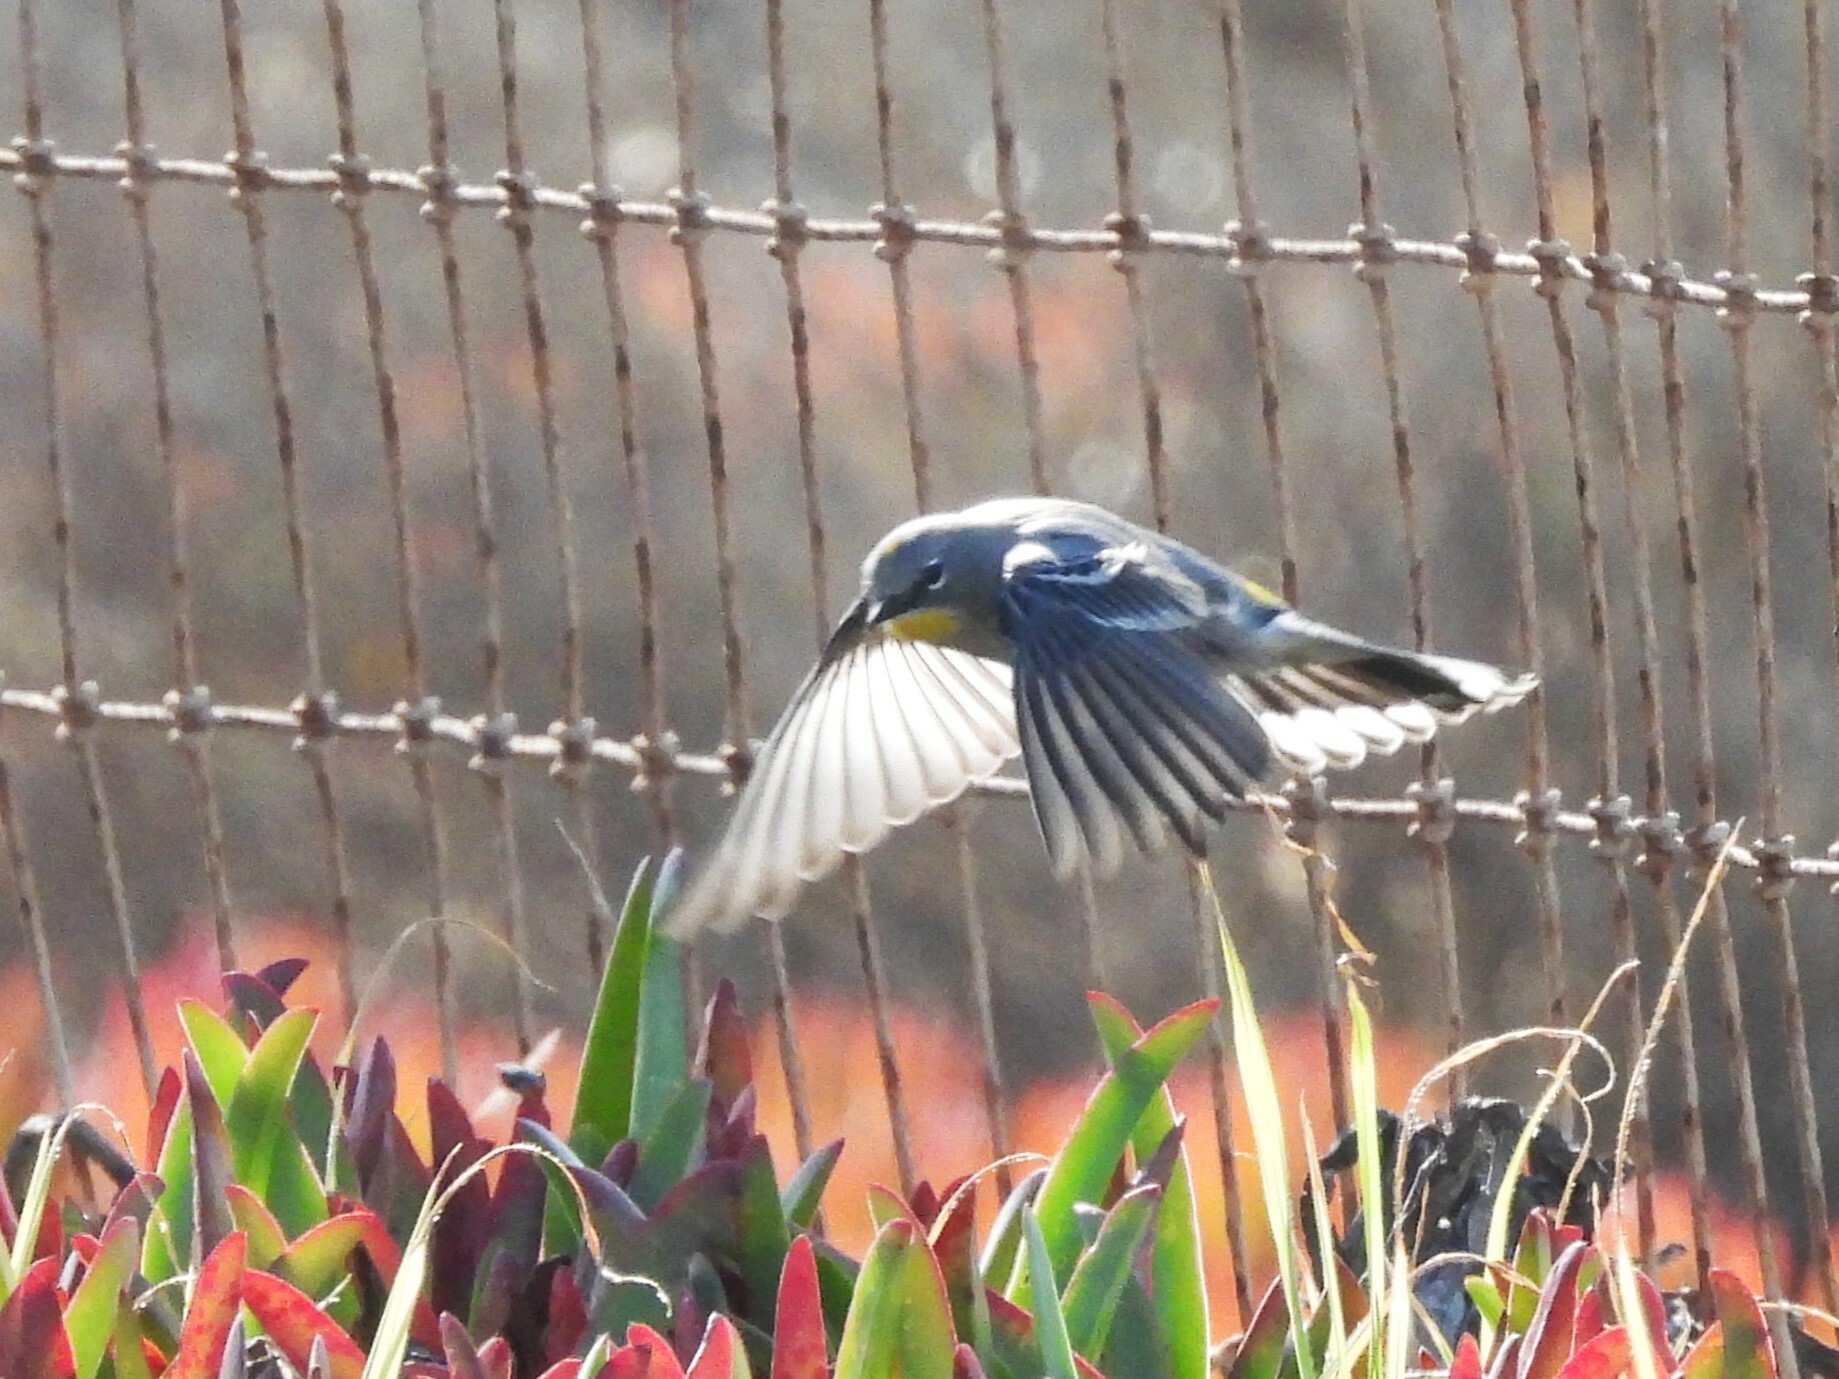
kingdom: Animalia
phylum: Chordata
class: Aves
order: Passeriformes
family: Parulidae
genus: Setophaga
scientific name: Setophaga coronata
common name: Myrtle warbler
